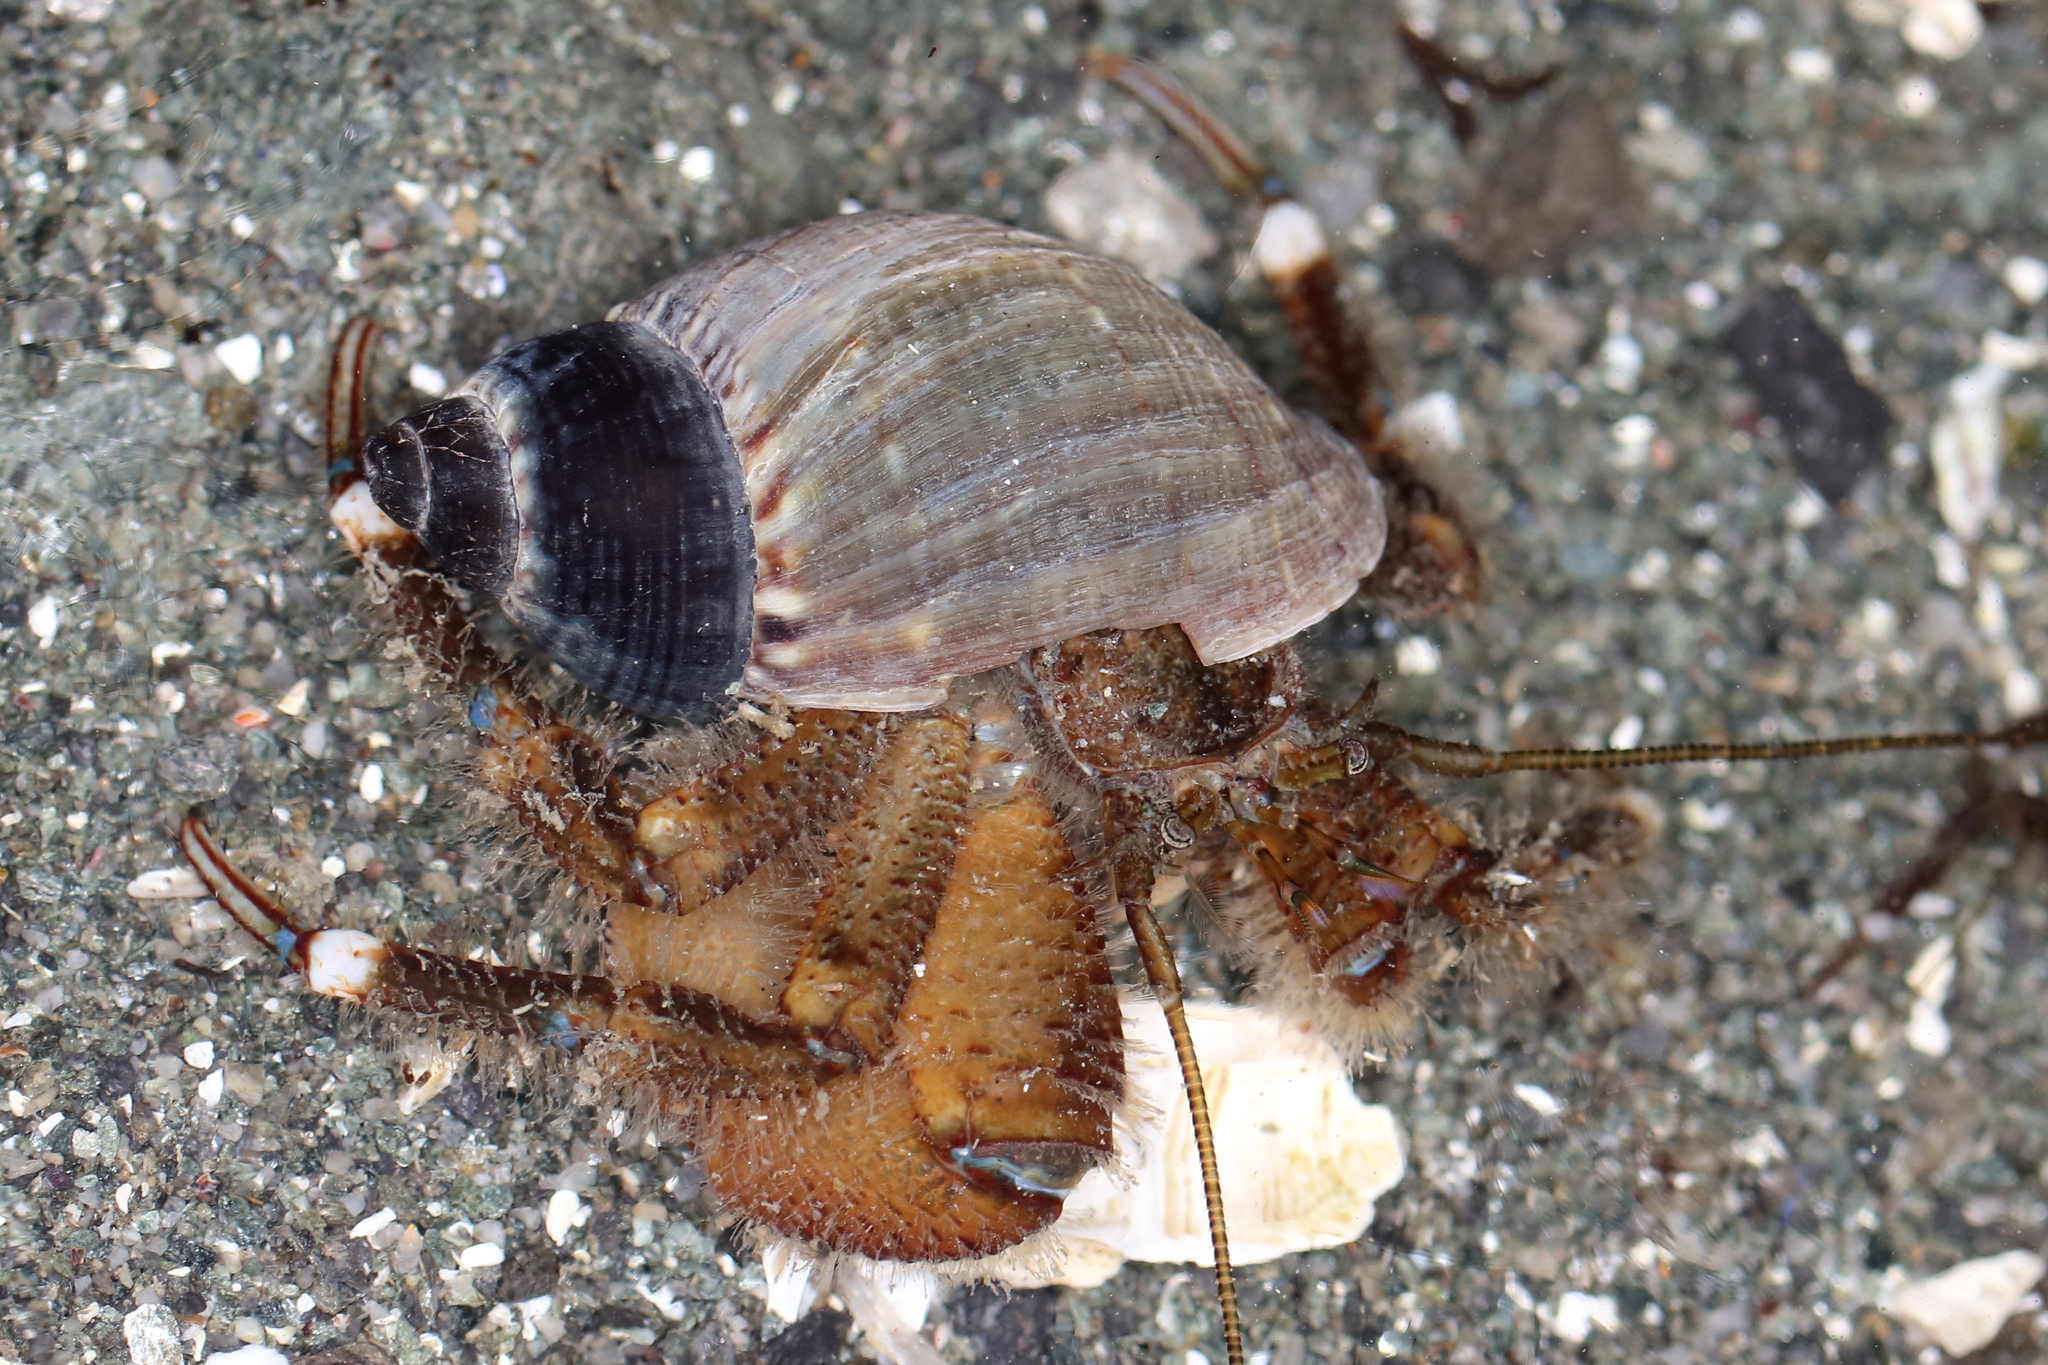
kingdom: Animalia
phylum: Arthropoda
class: Malacostraca
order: Decapoda
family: Paguridae
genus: Pagurus
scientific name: Pagurus hirsutiusculus
